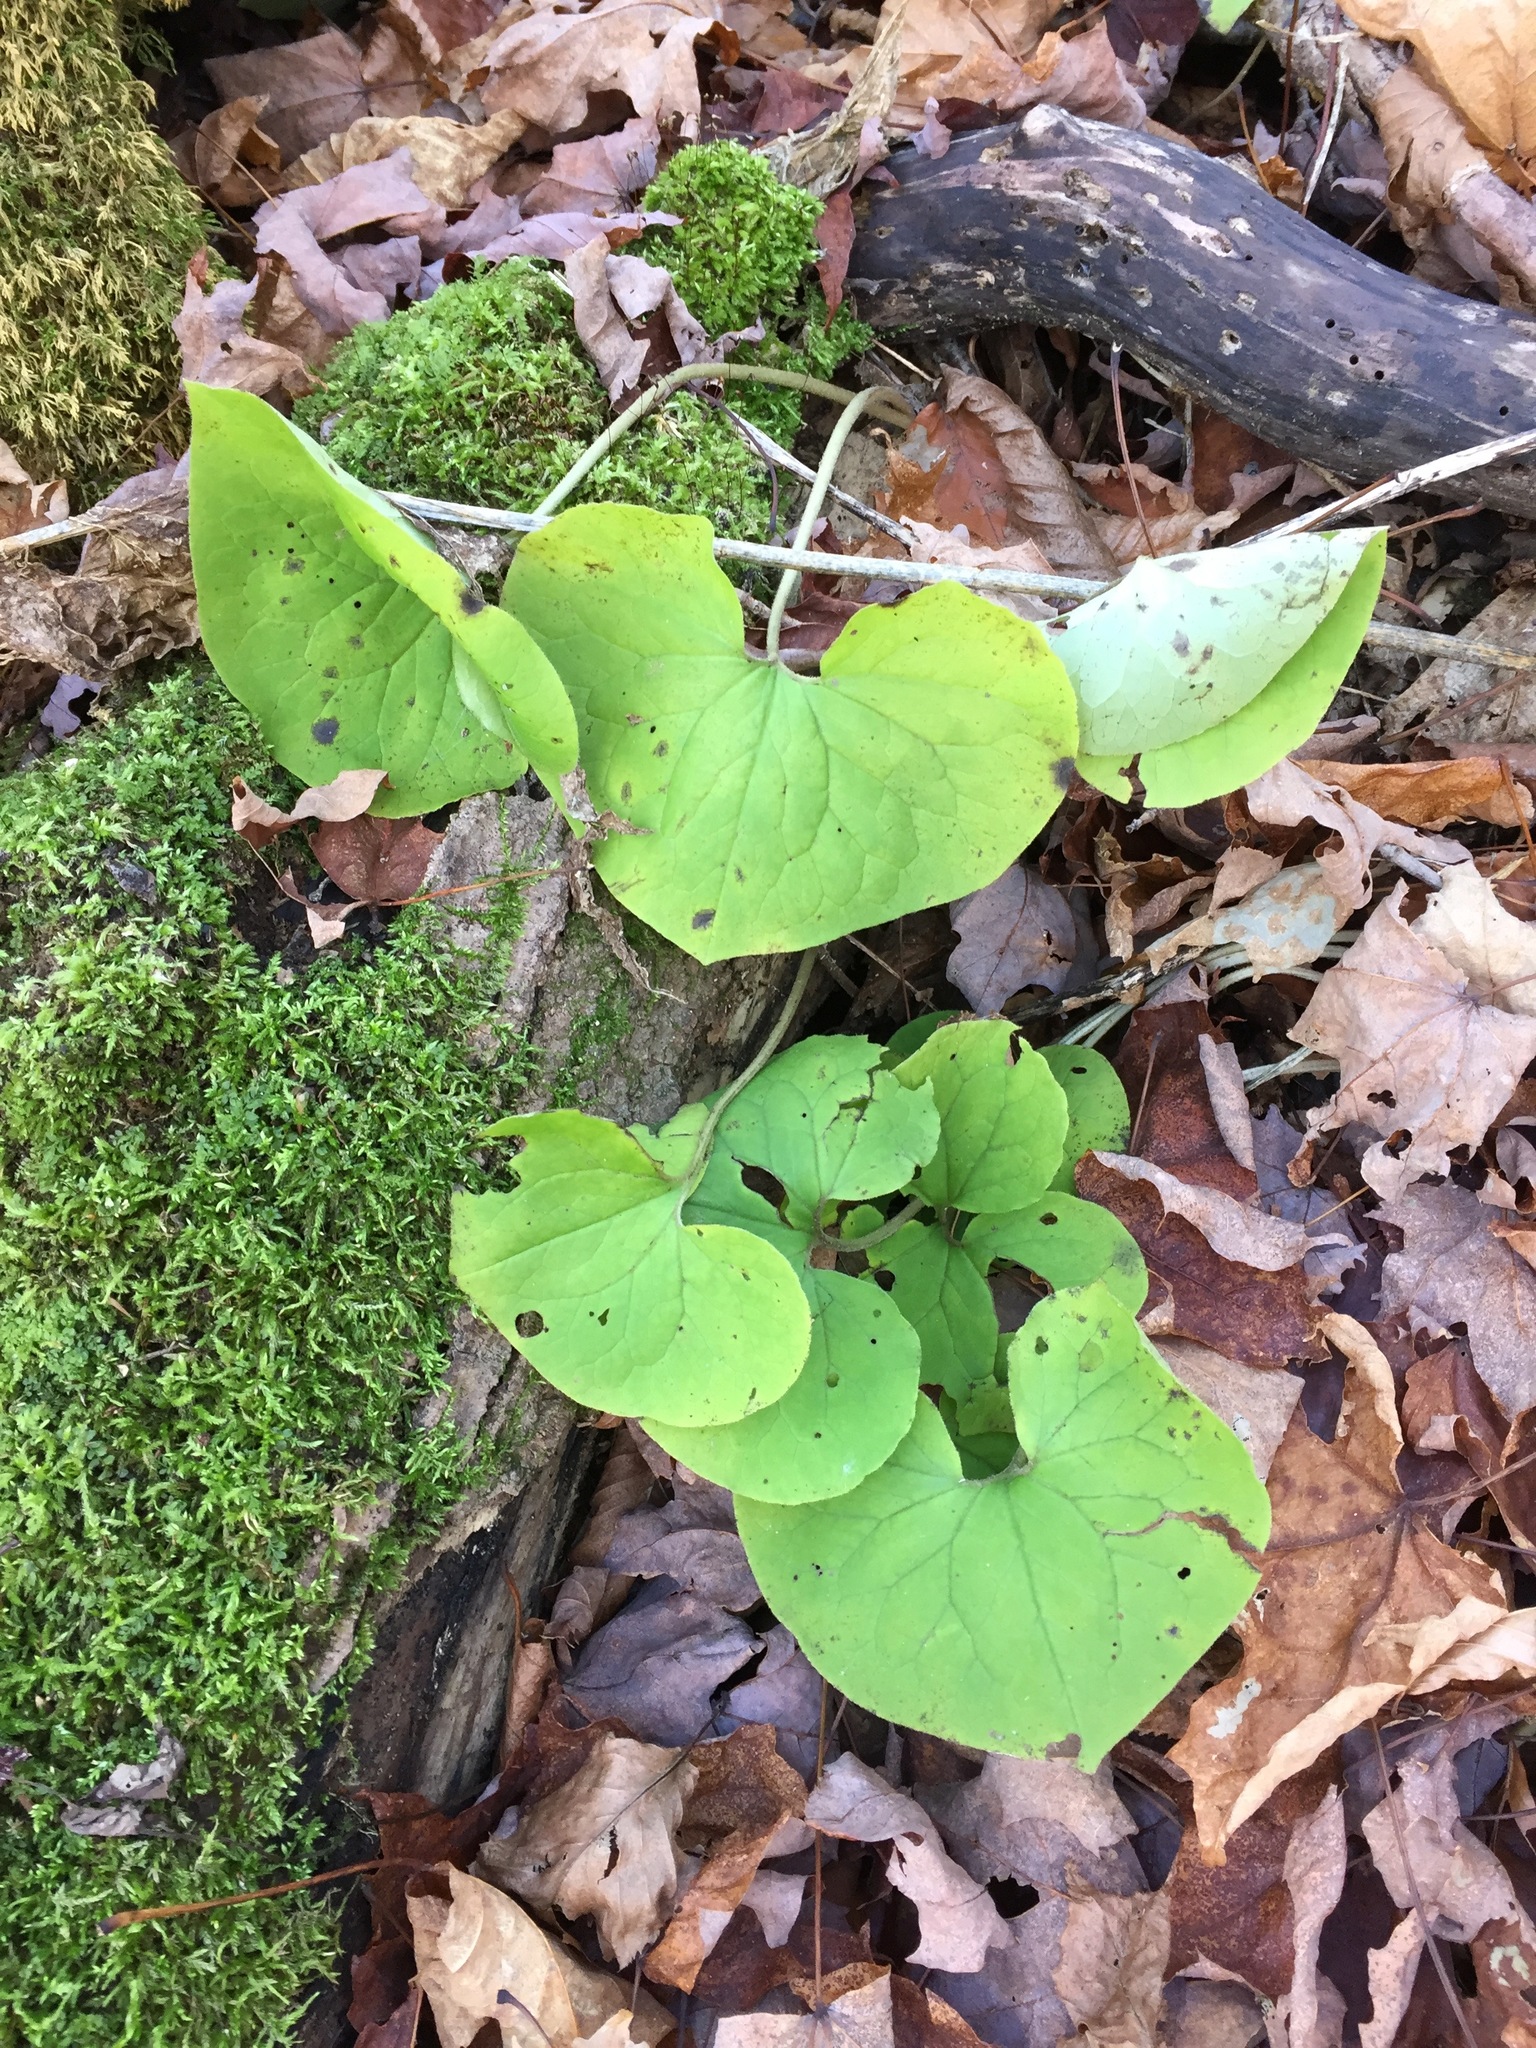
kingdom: Plantae
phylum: Tracheophyta
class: Magnoliopsida
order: Piperales
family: Aristolochiaceae
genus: Asarum
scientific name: Asarum canadense
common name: Wild ginger
